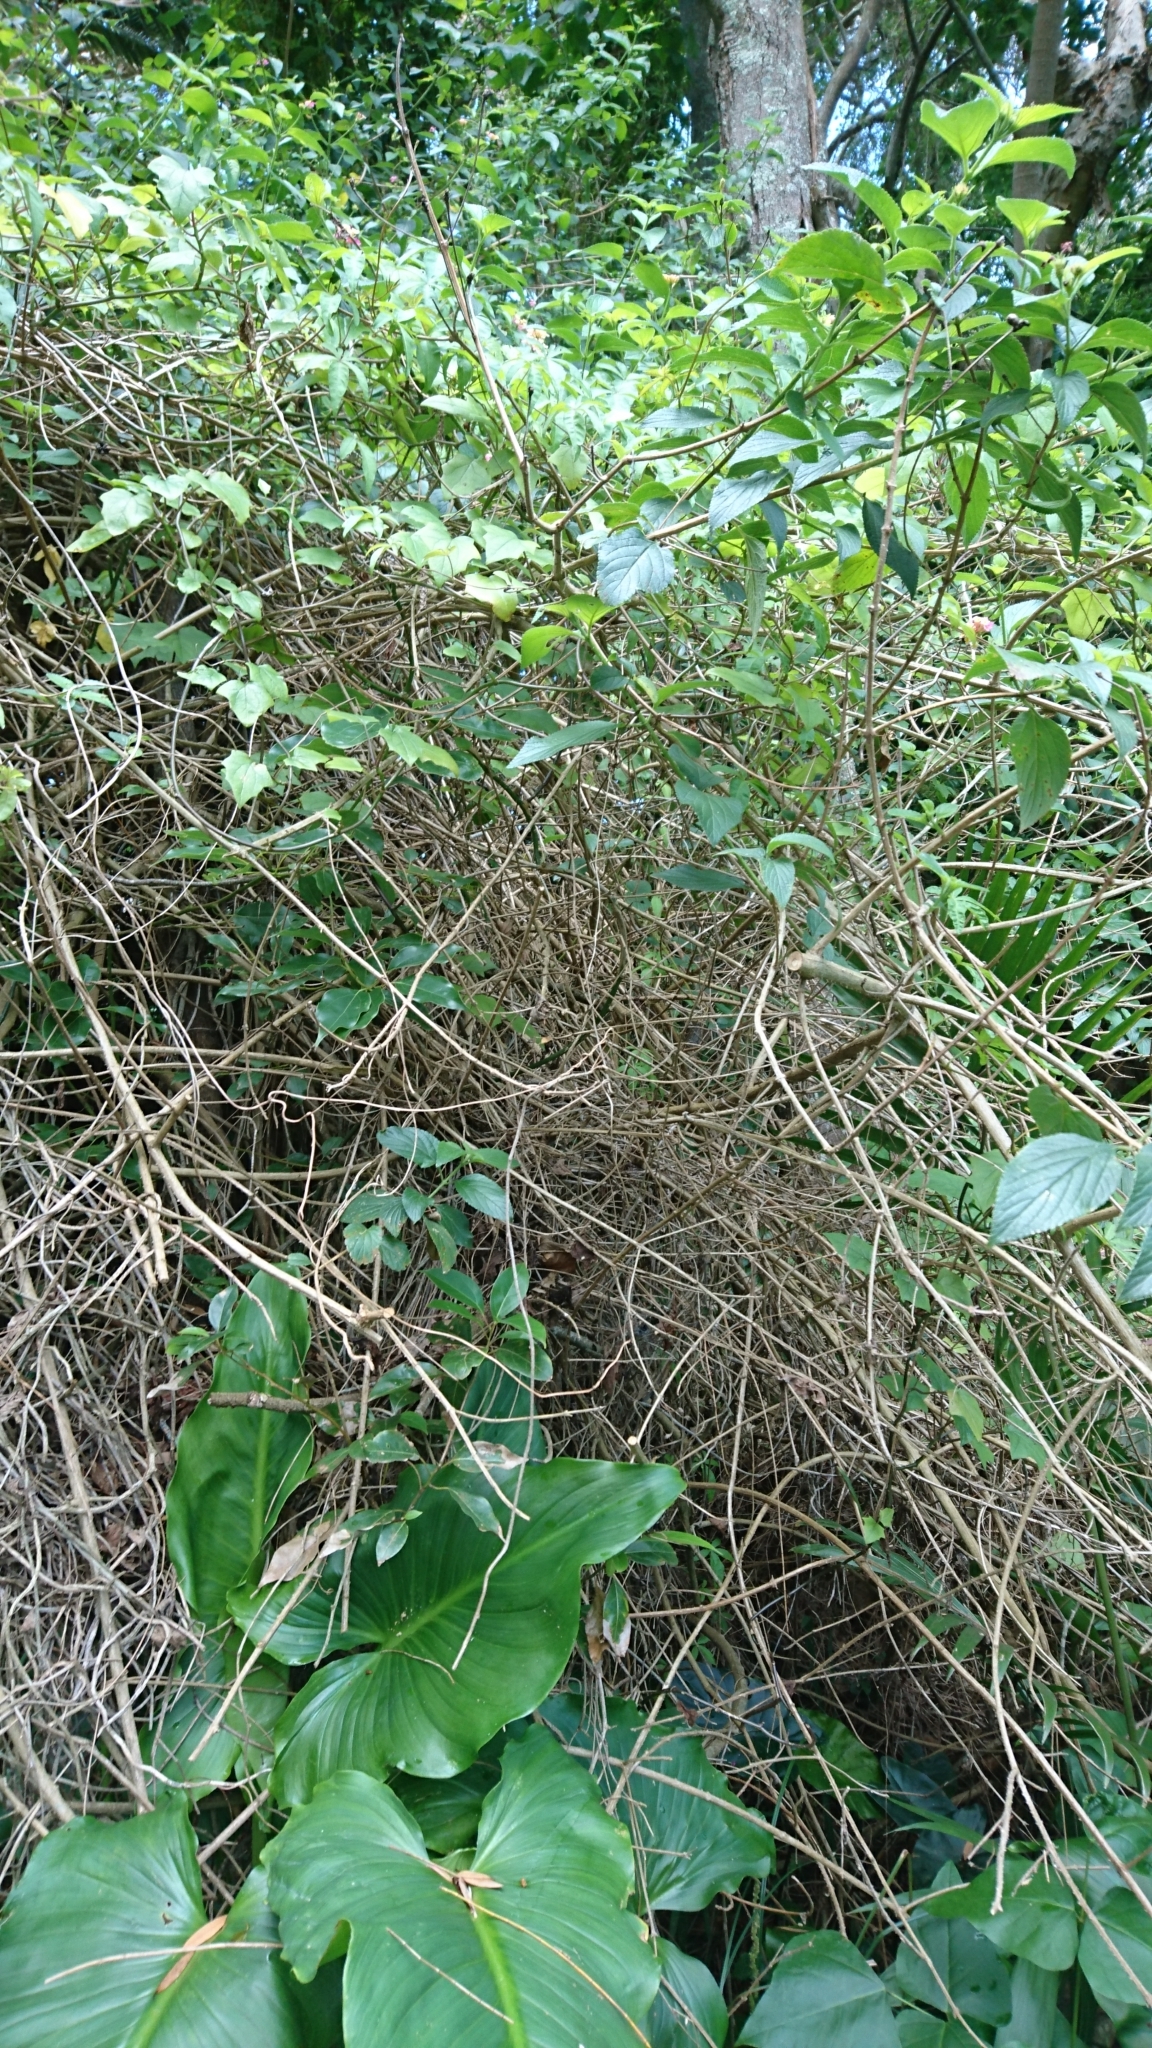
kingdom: Plantae
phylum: Tracheophyta
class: Magnoliopsida
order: Lamiales
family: Verbenaceae
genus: Lantana
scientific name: Lantana camara
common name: Lantana
